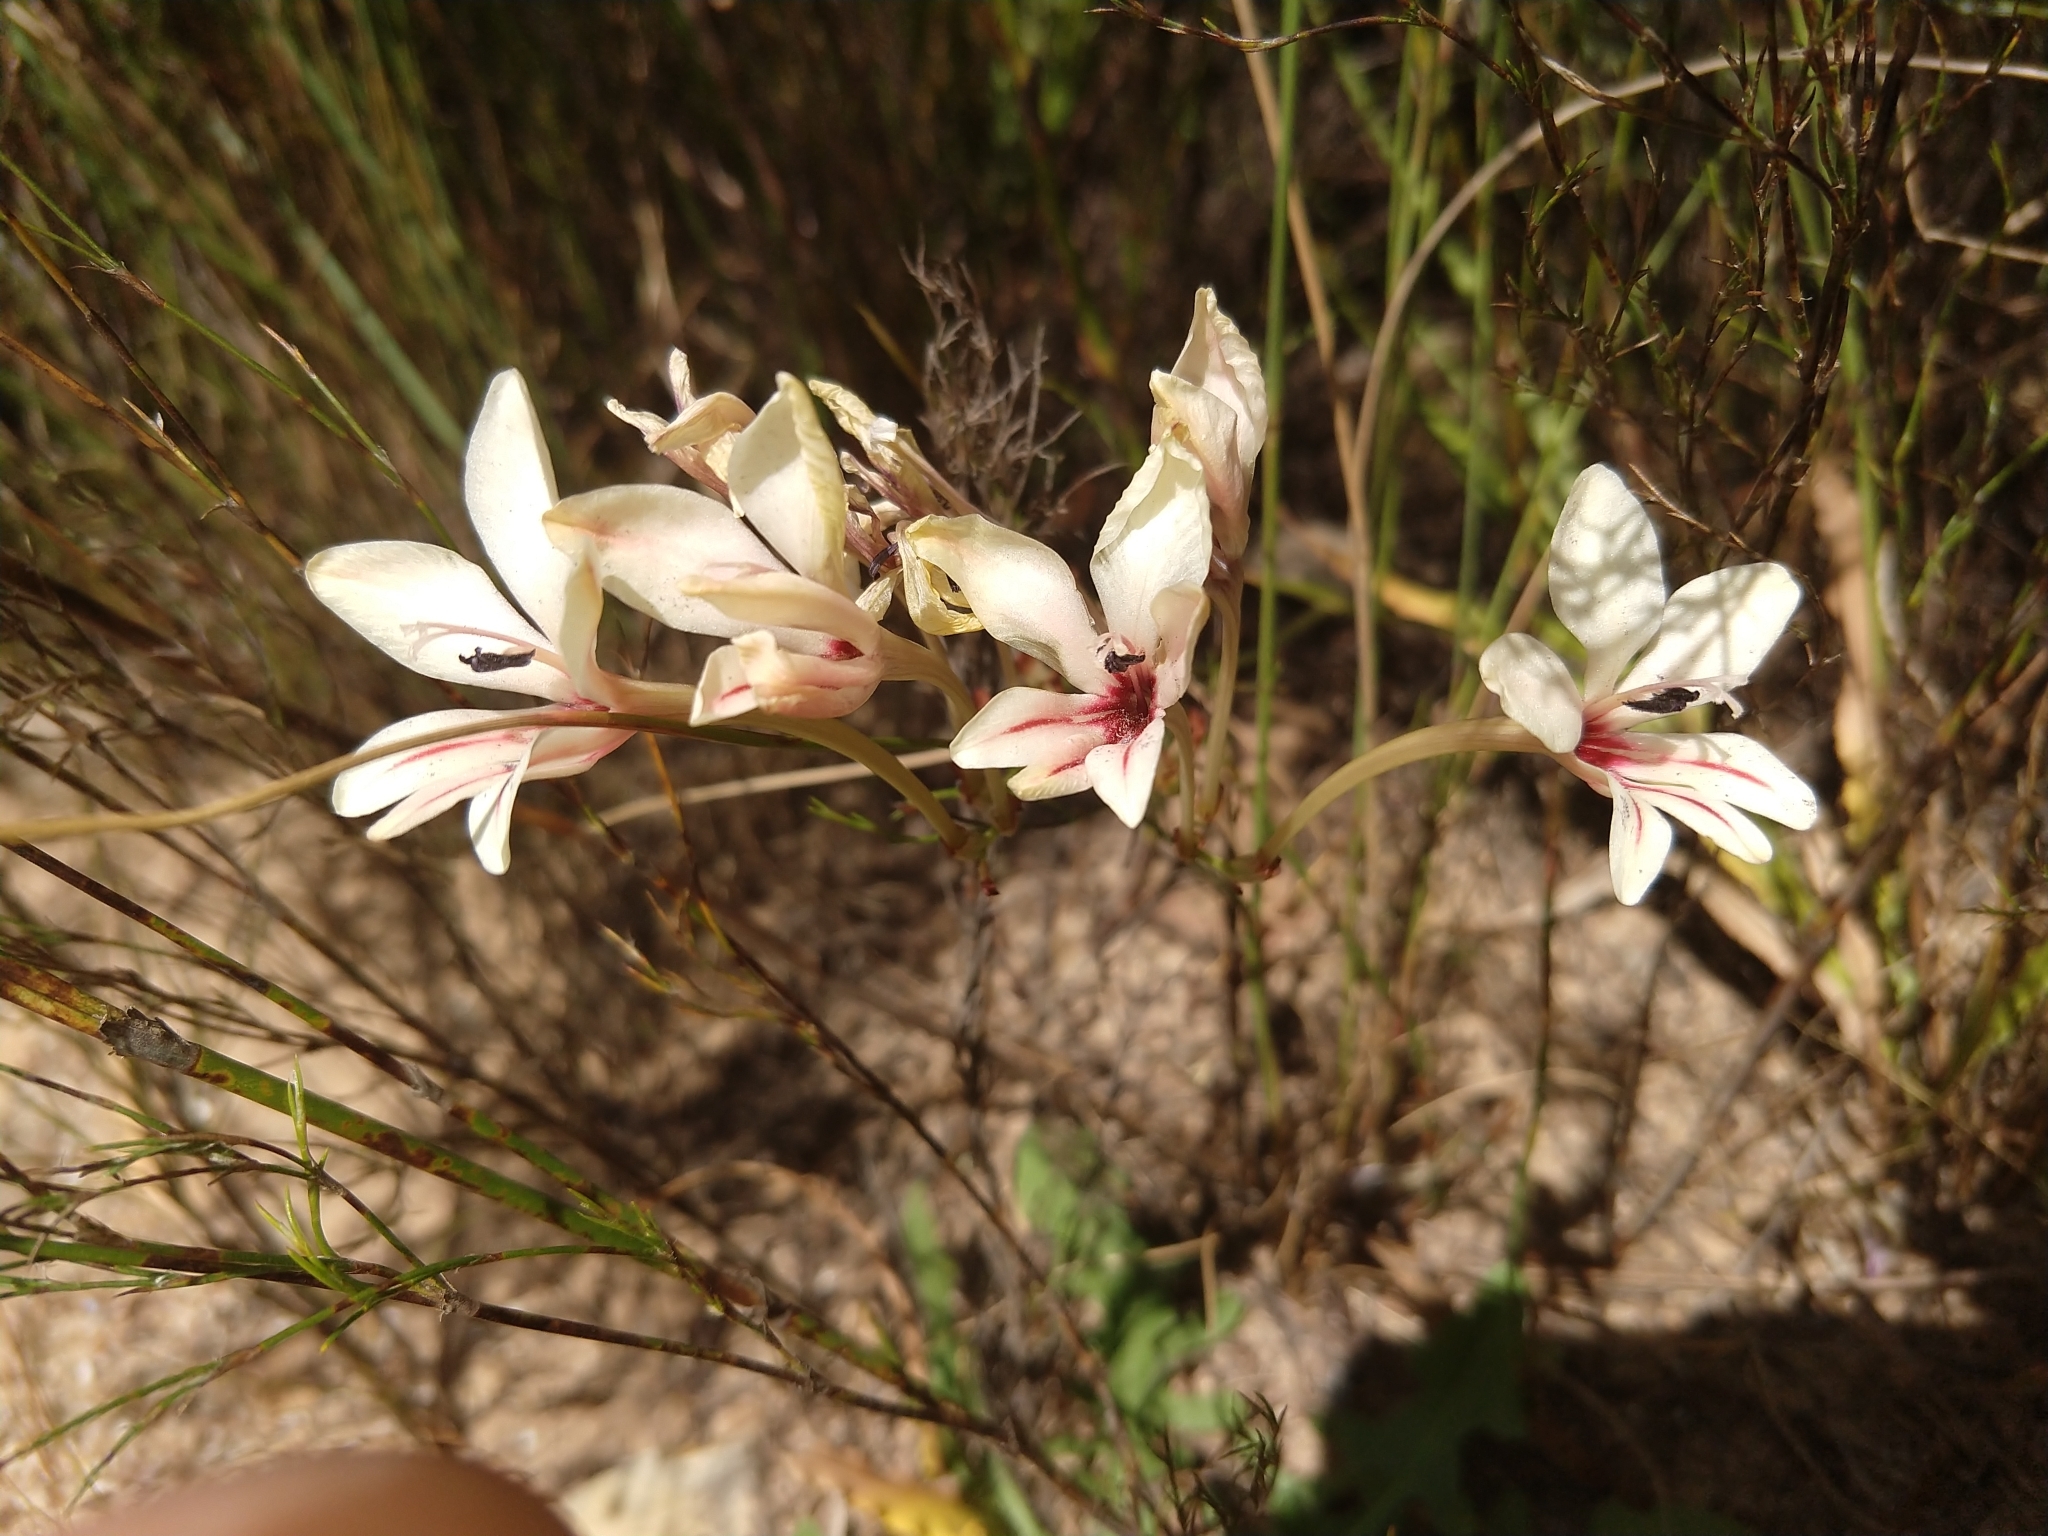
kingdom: Plantae
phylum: Tracheophyta
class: Liliopsida
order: Asparagales
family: Iridaceae
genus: Tritonia
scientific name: Tritonia undulata
